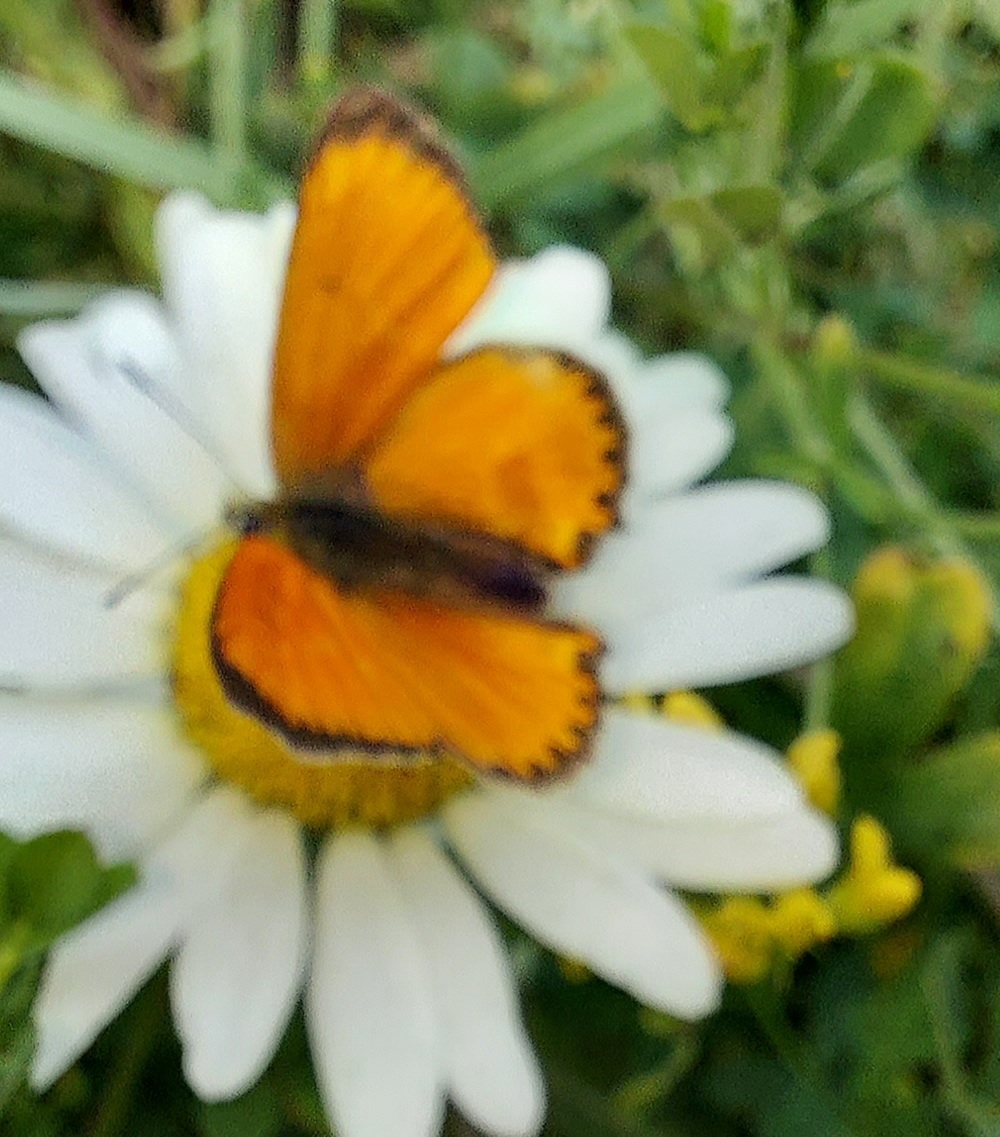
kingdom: Animalia
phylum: Arthropoda
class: Insecta
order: Lepidoptera
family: Lycaenidae
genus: Lycaena
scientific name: Lycaena virgaureae
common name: Scarce copper
